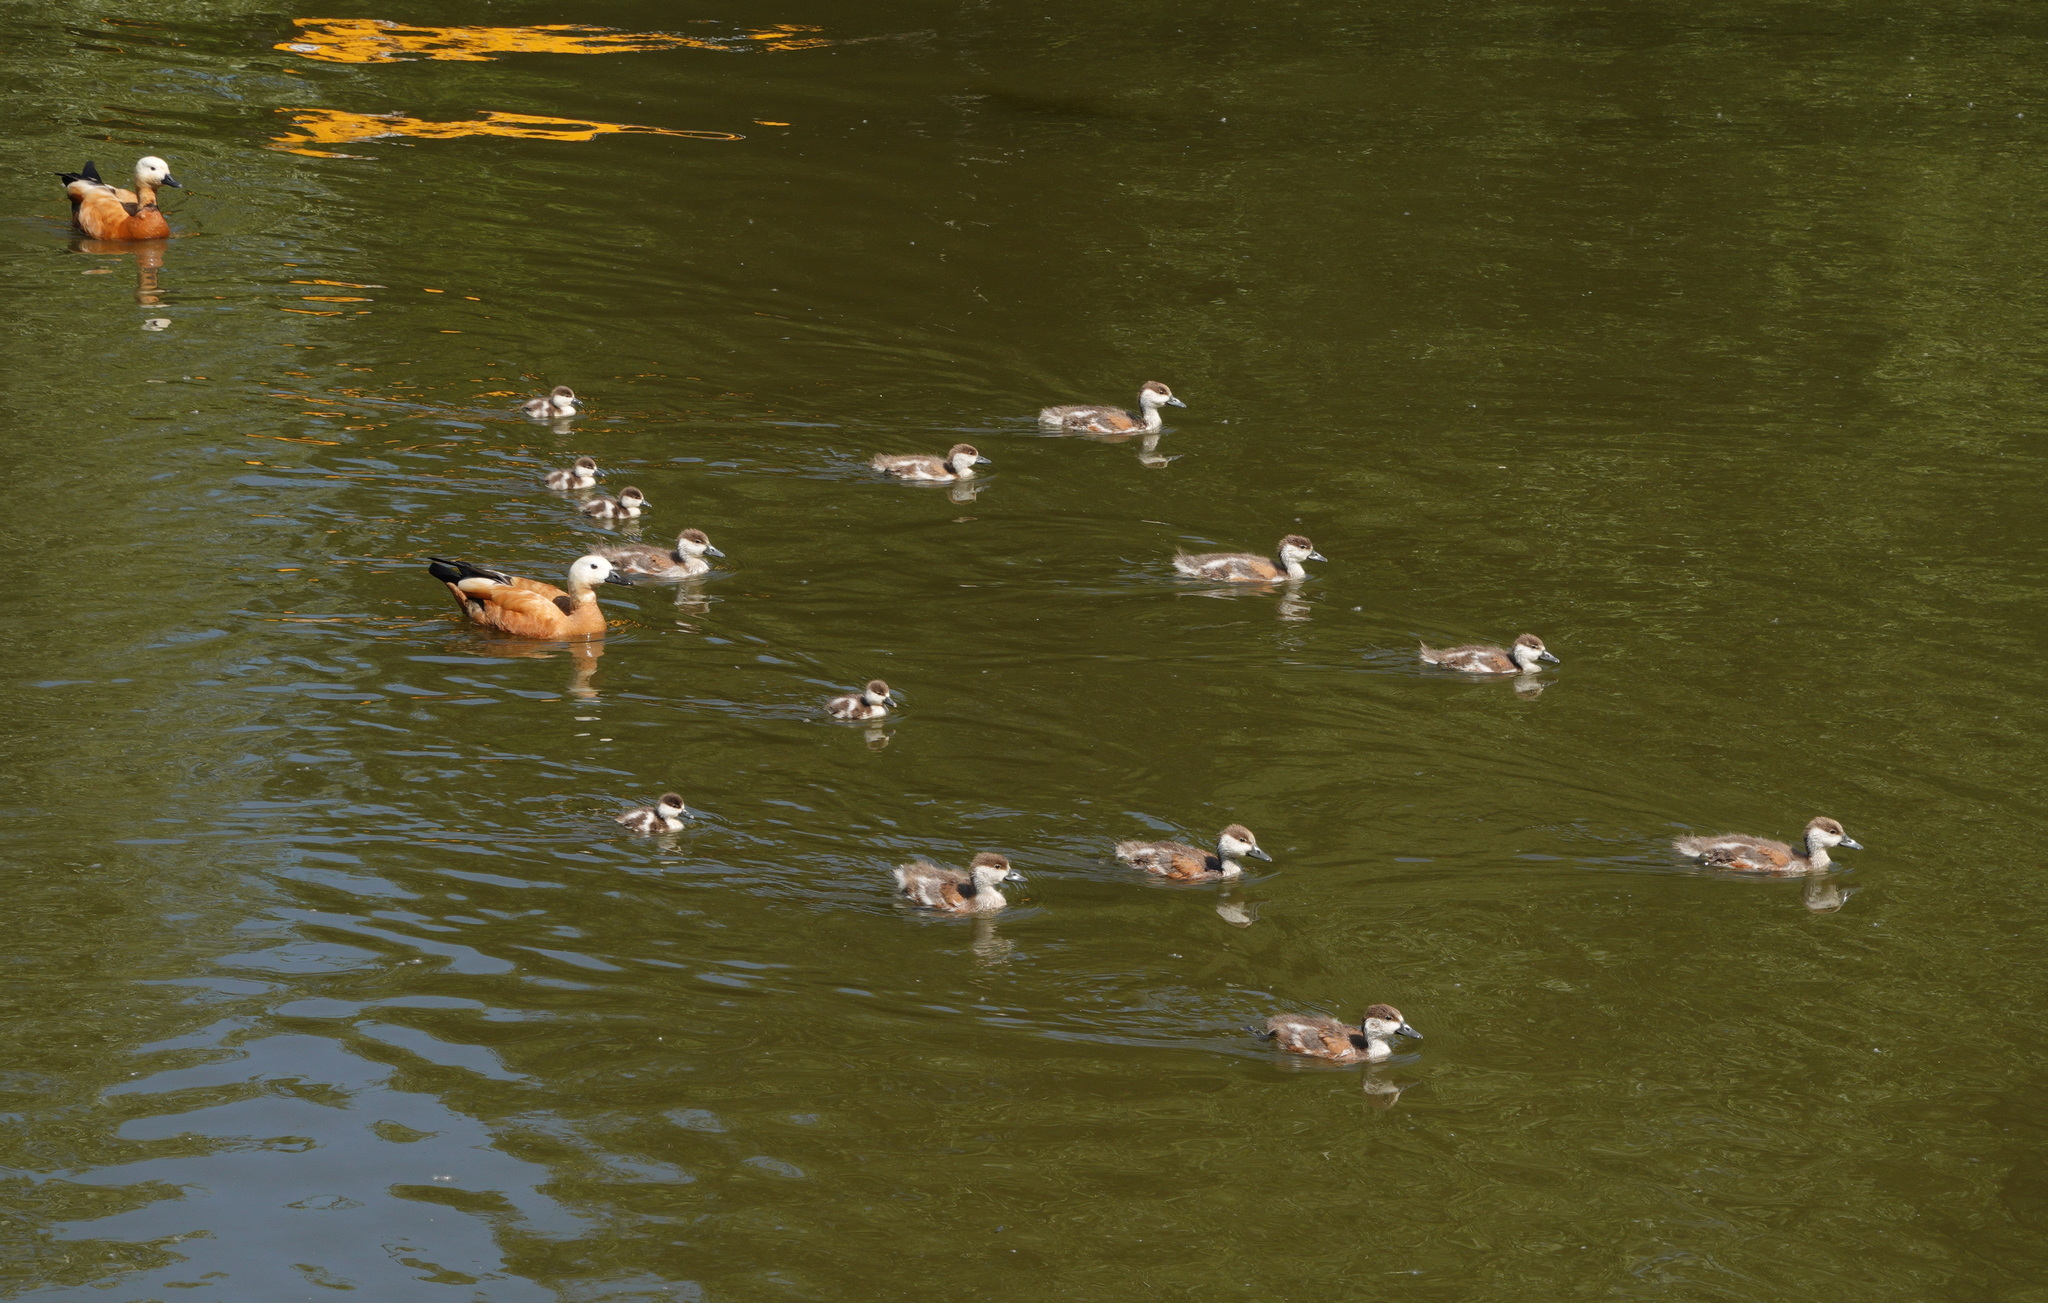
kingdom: Animalia
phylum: Chordata
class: Aves
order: Anseriformes
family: Anatidae
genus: Tadorna
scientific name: Tadorna ferruginea
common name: Ruddy shelduck
